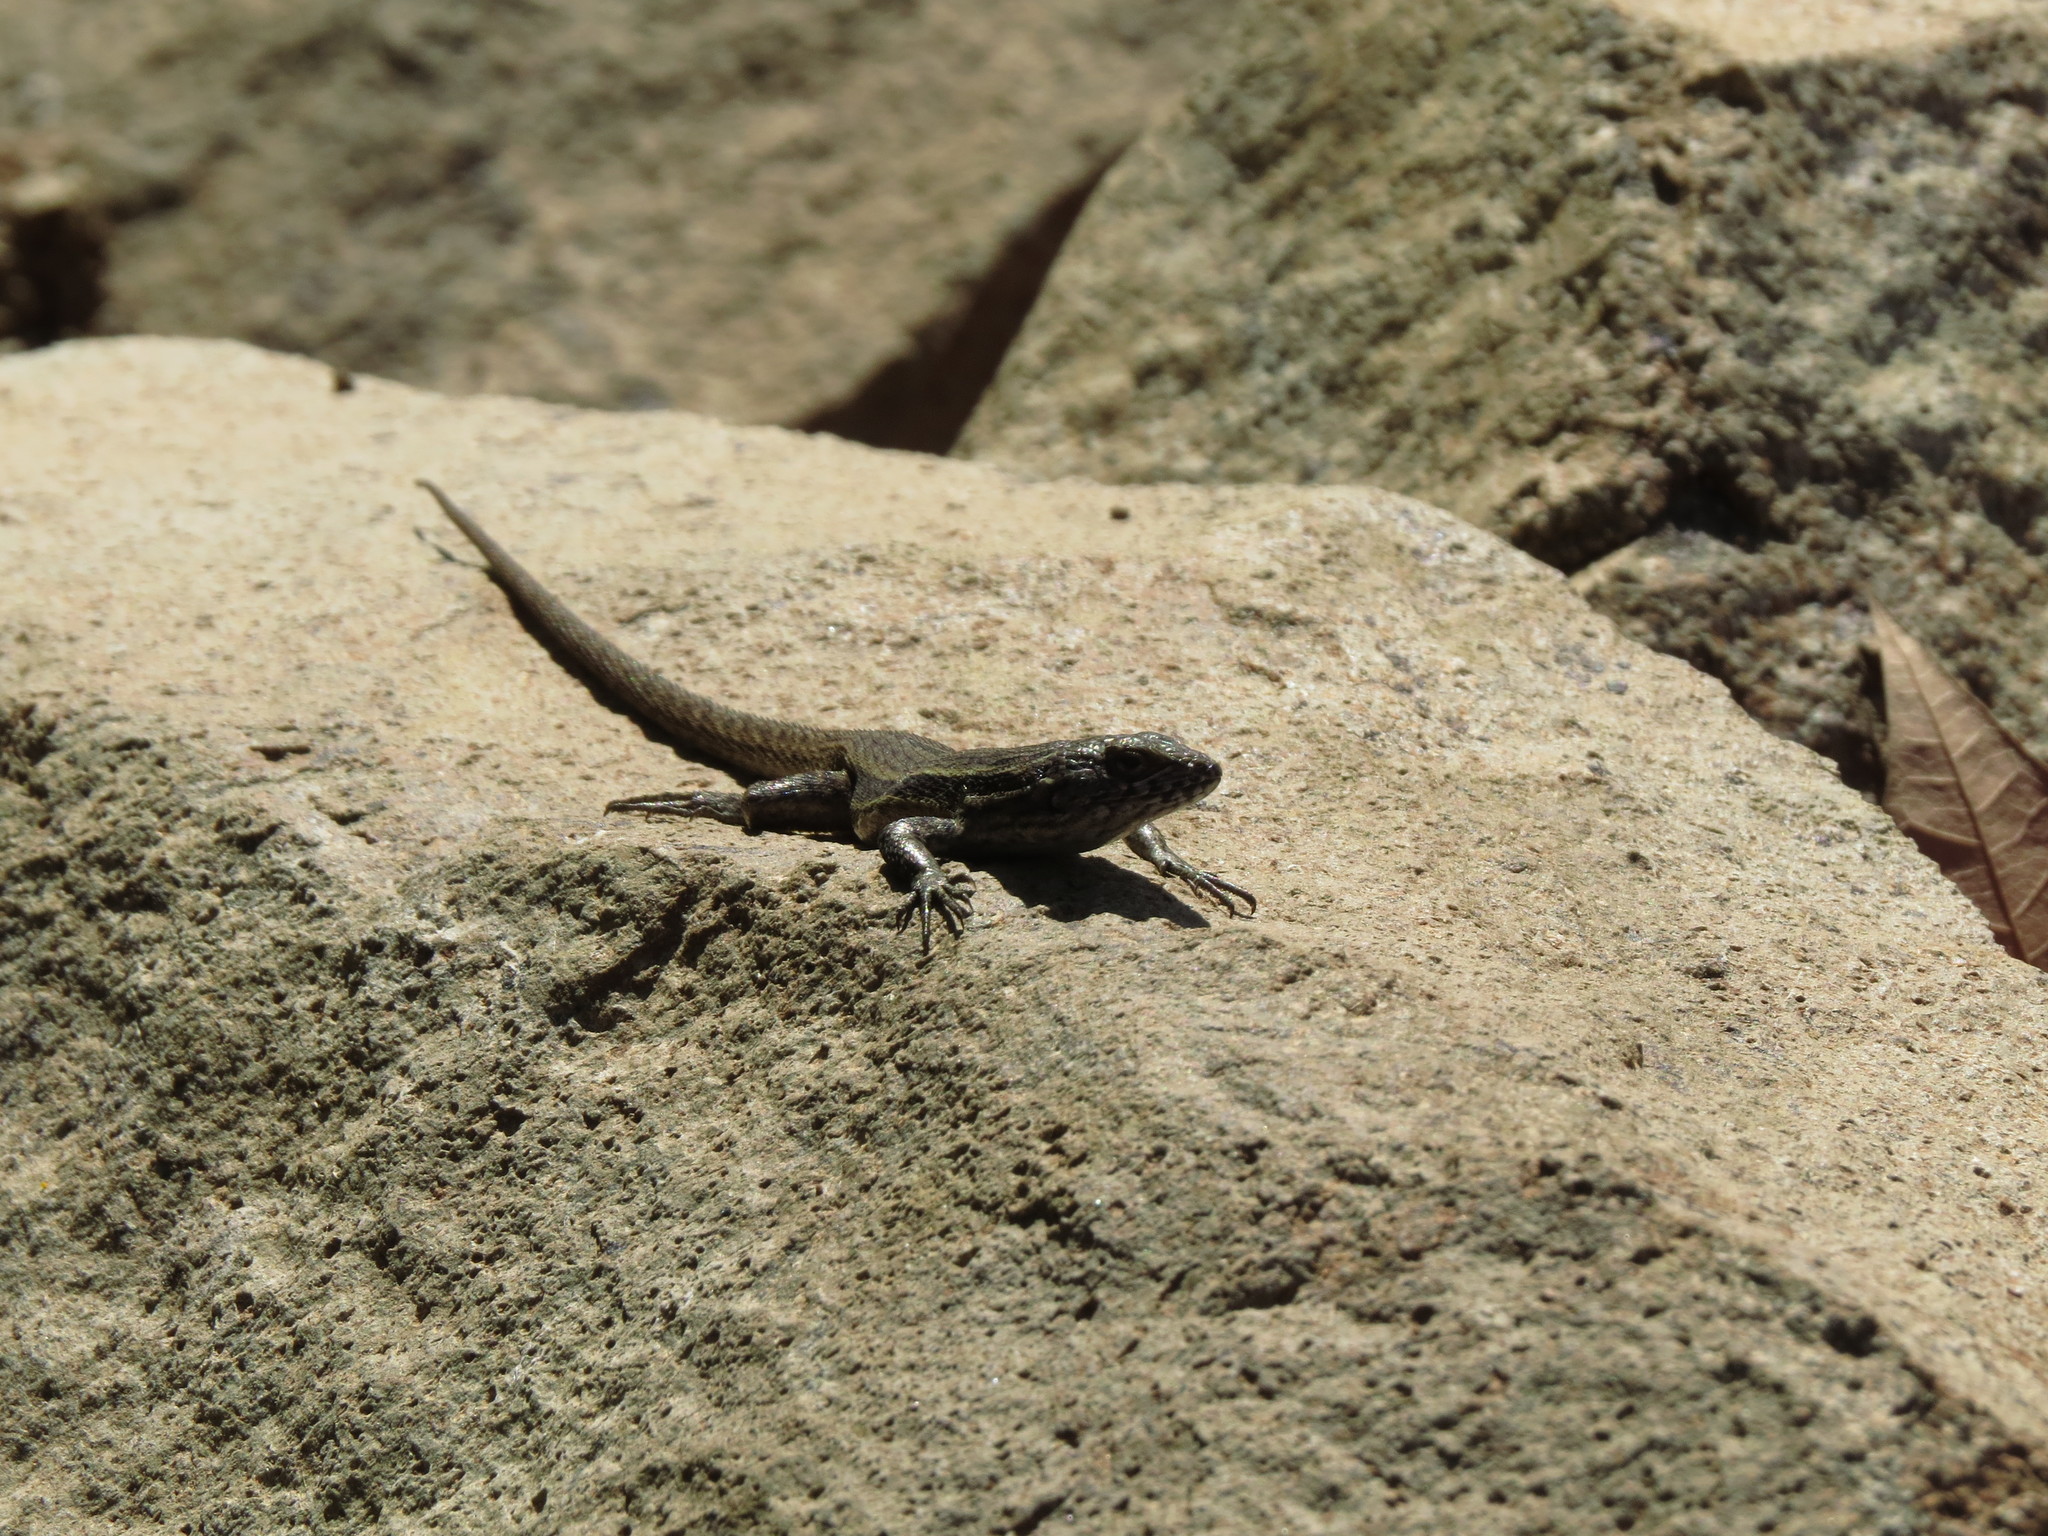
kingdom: Animalia
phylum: Chordata
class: Squamata
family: Liolaemidae
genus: Liolaemus
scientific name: Liolaemus fuscus
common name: Brown tree iguana
